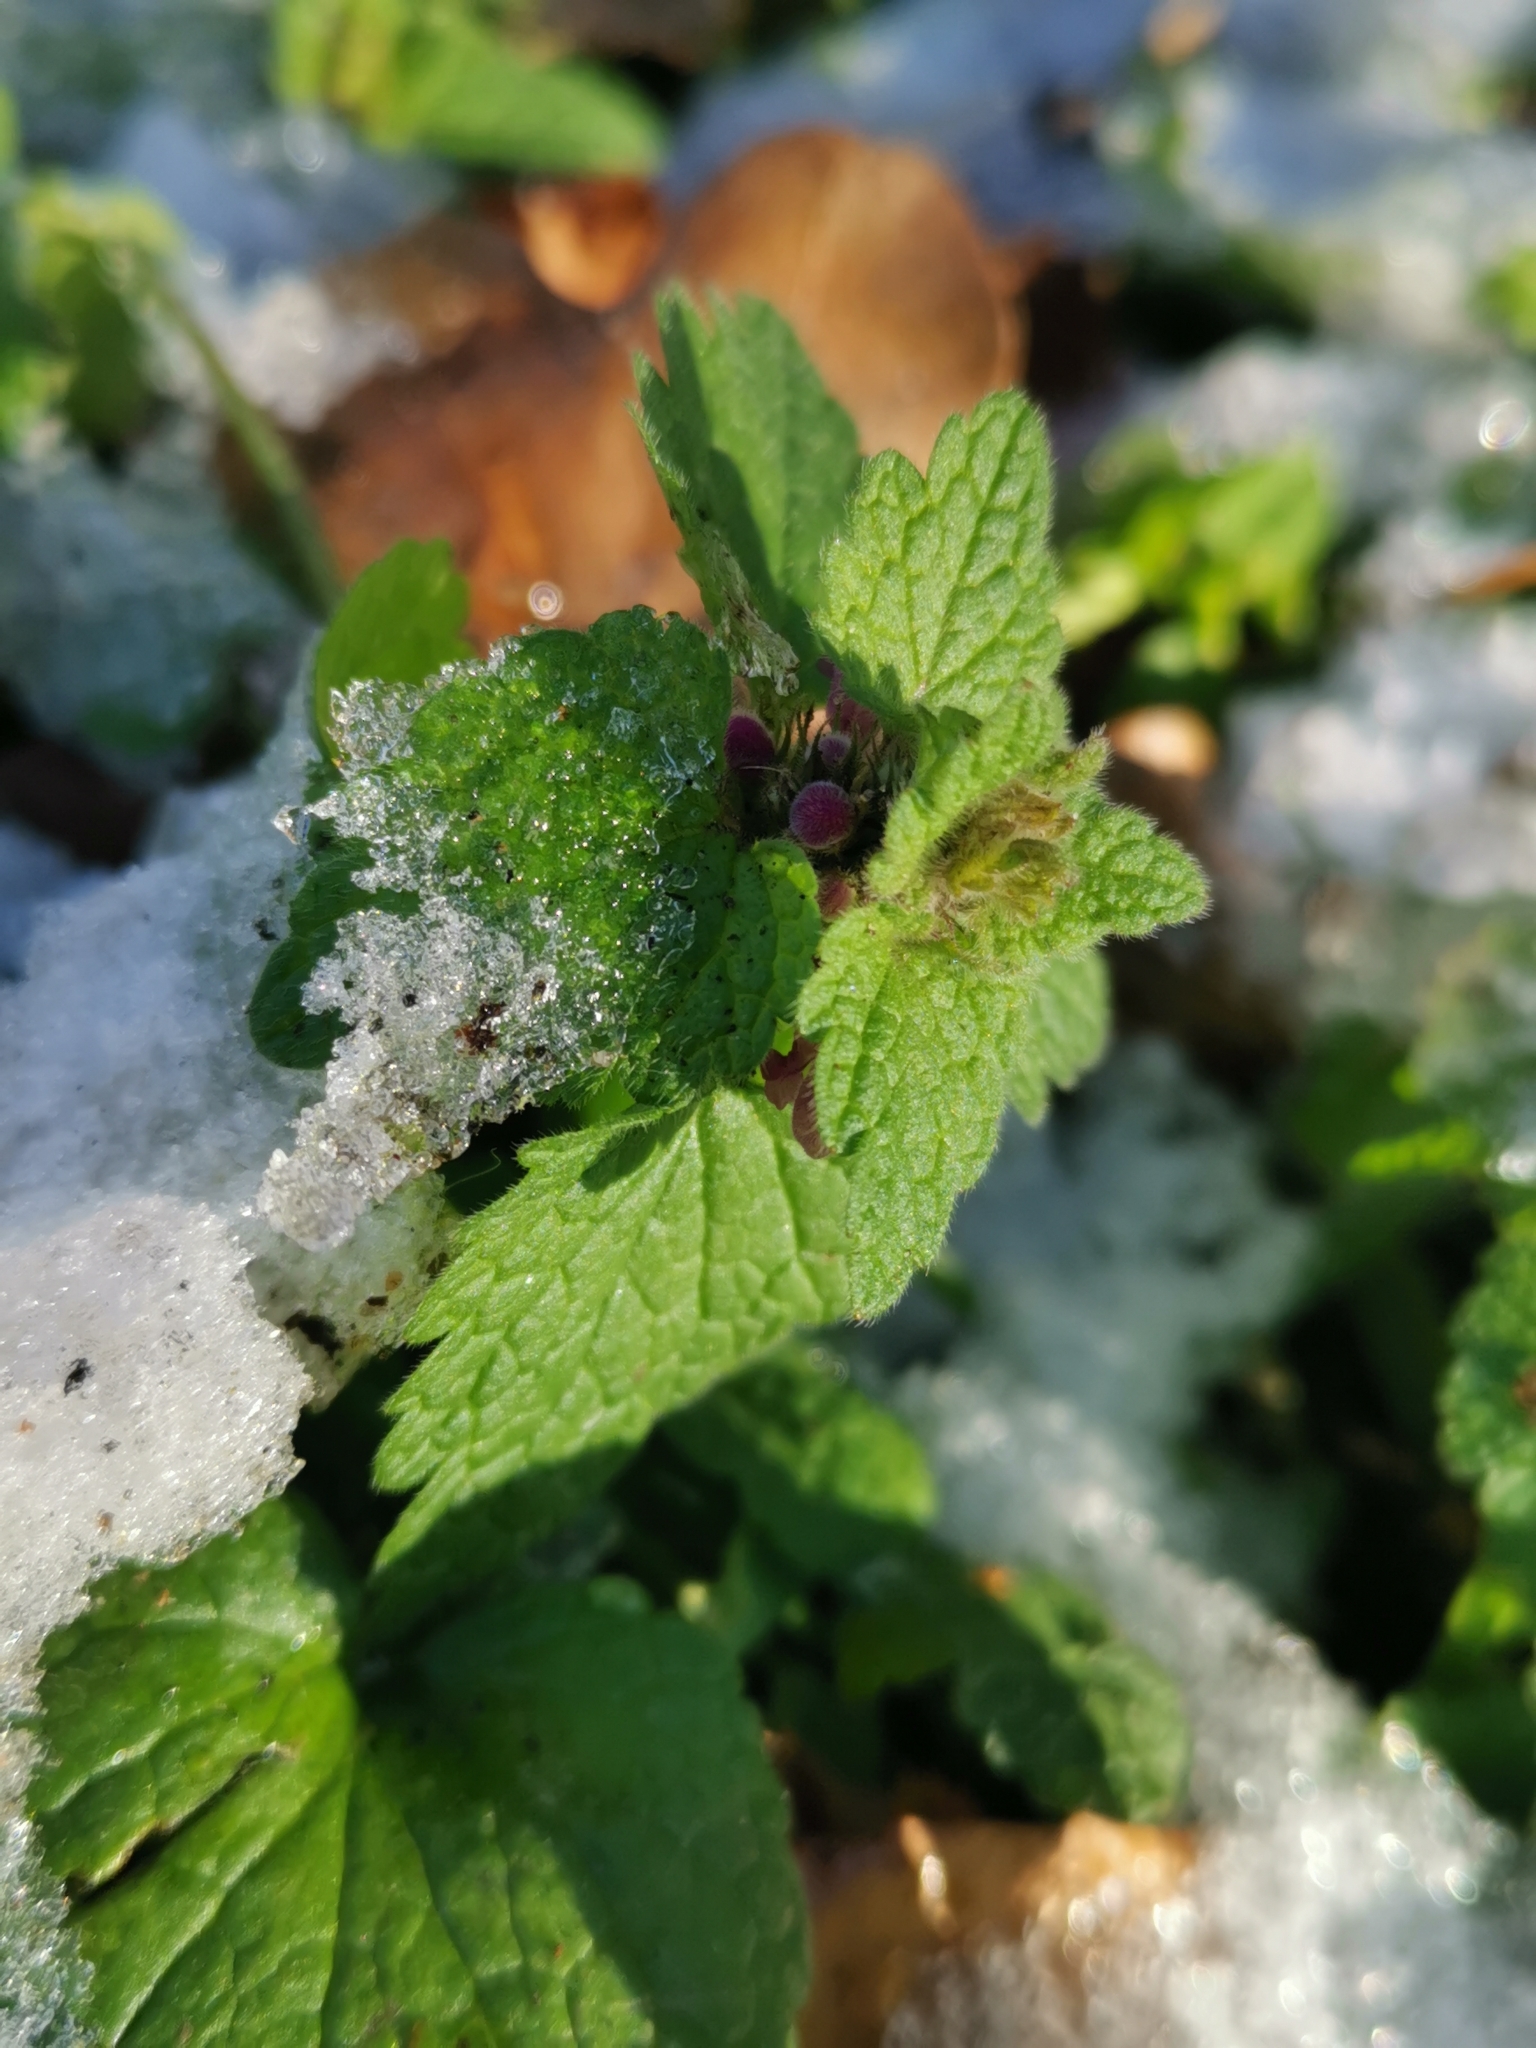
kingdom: Plantae
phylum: Tracheophyta
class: Magnoliopsida
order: Lamiales
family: Lamiaceae
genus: Lamium
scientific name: Lamium purpureum
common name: Red dead-nettle
